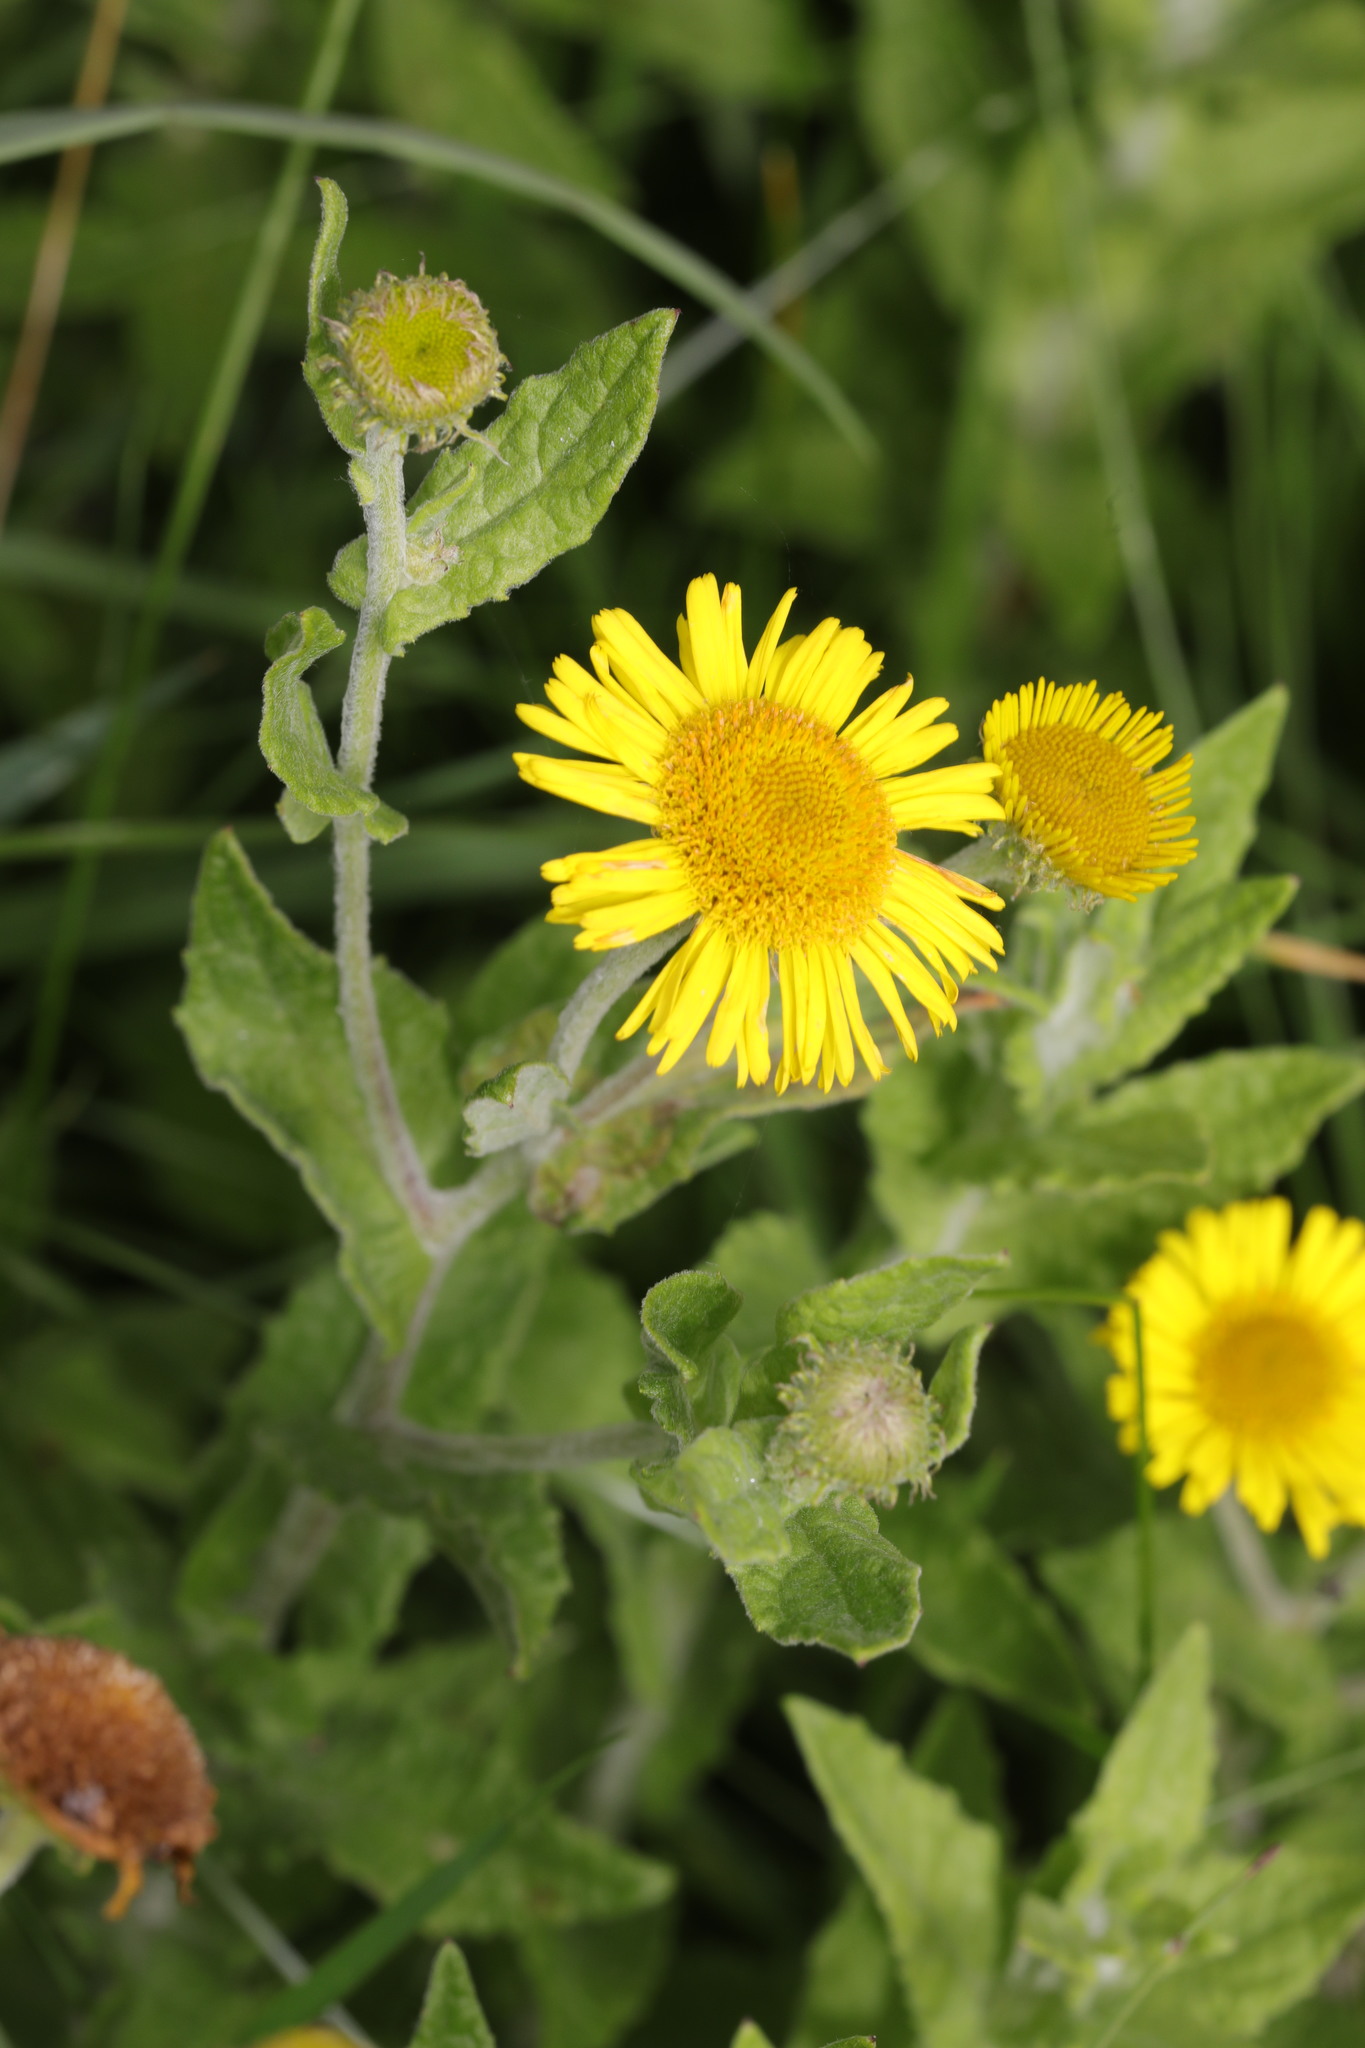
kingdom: Plantae
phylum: Tracheophyta
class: Magnoliopsida
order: Asterales
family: Asteraceae
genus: Pulicaria
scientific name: Pulicaria dysenterica
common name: Common fleabane
